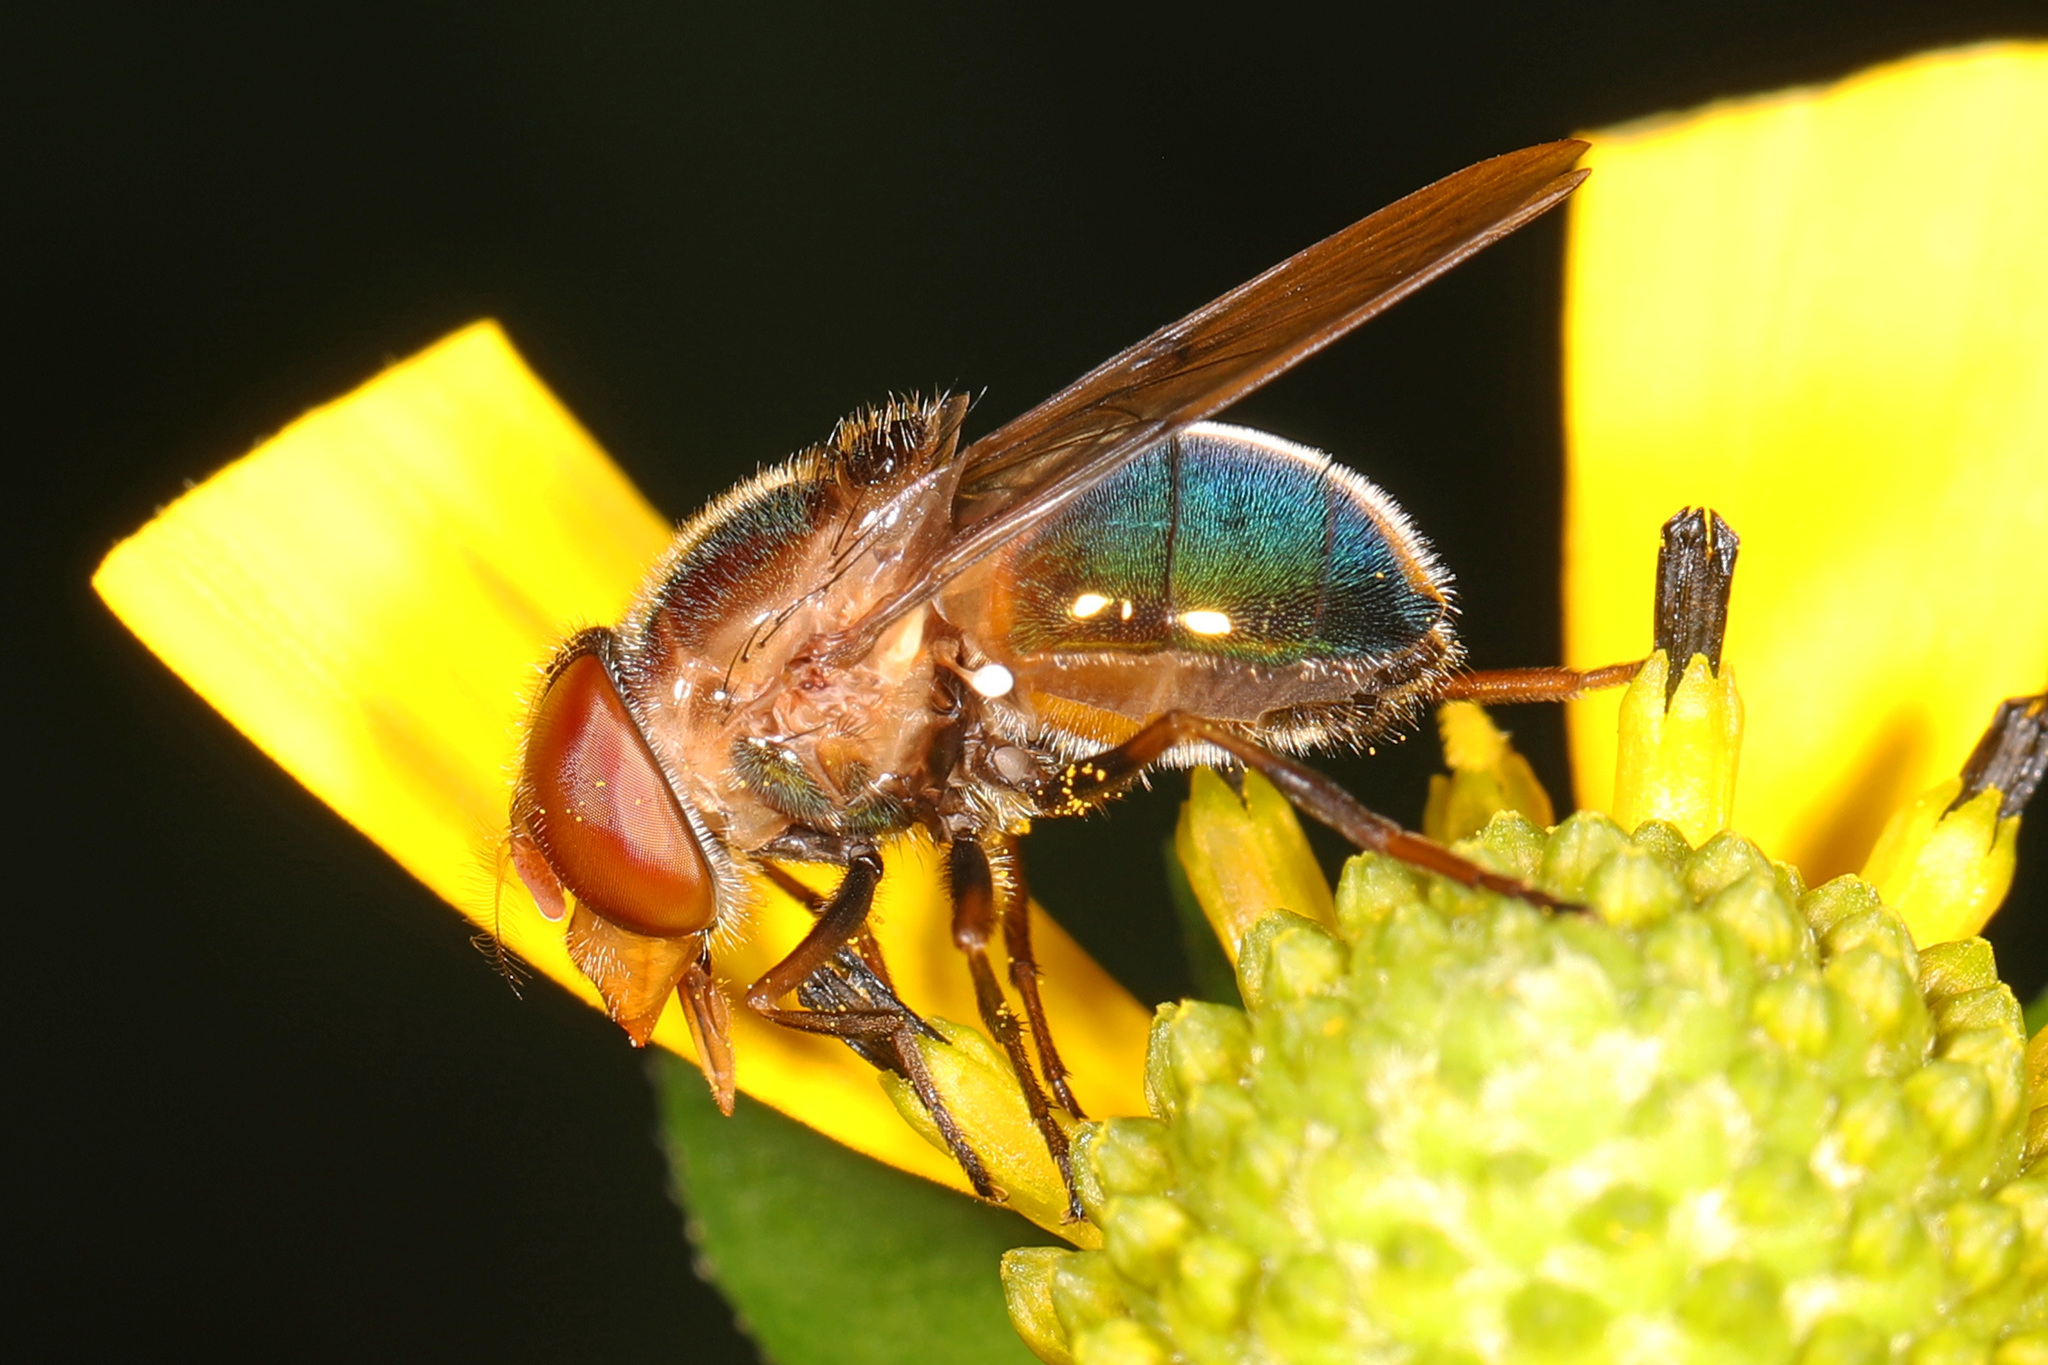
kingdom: Animalia
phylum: Arthropoda
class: Insecta
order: Diptera
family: Syrphidae
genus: Copestylum
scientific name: Copestylum vesicularium
